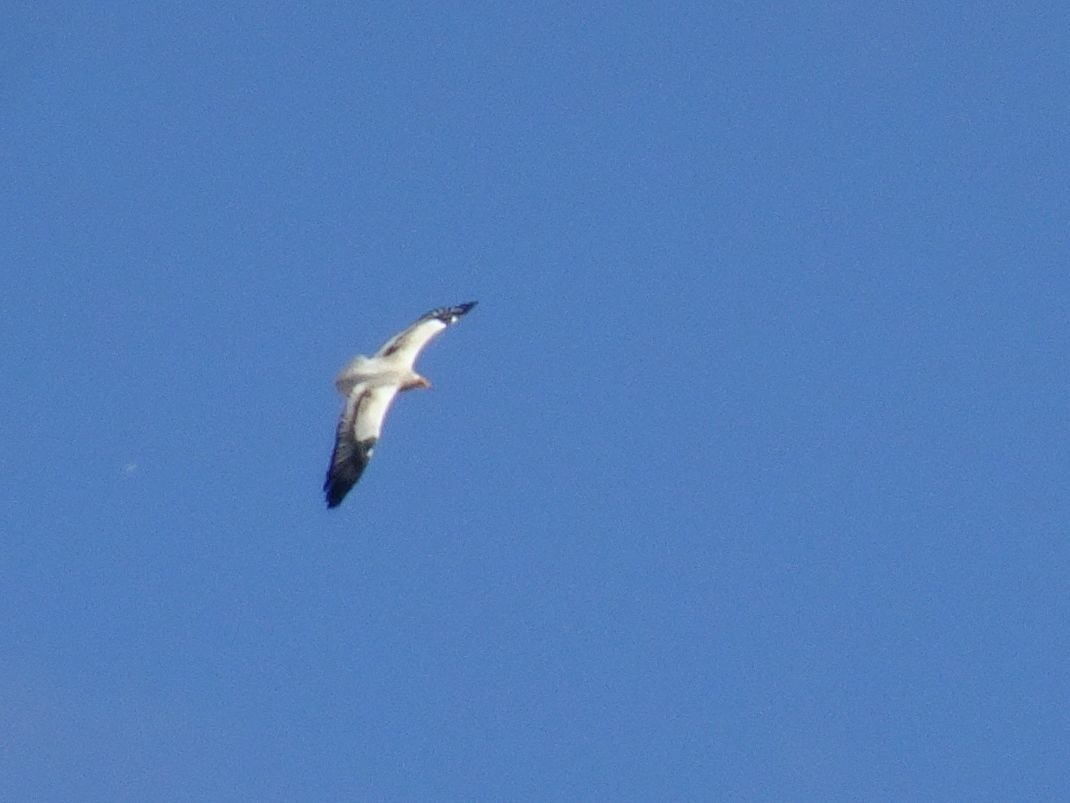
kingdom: Animalia
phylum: Chordata
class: Aves
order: Accipitriformes
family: Accipitridae
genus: Neophron
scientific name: Neophron percnopterus
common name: Egyptian vulture
